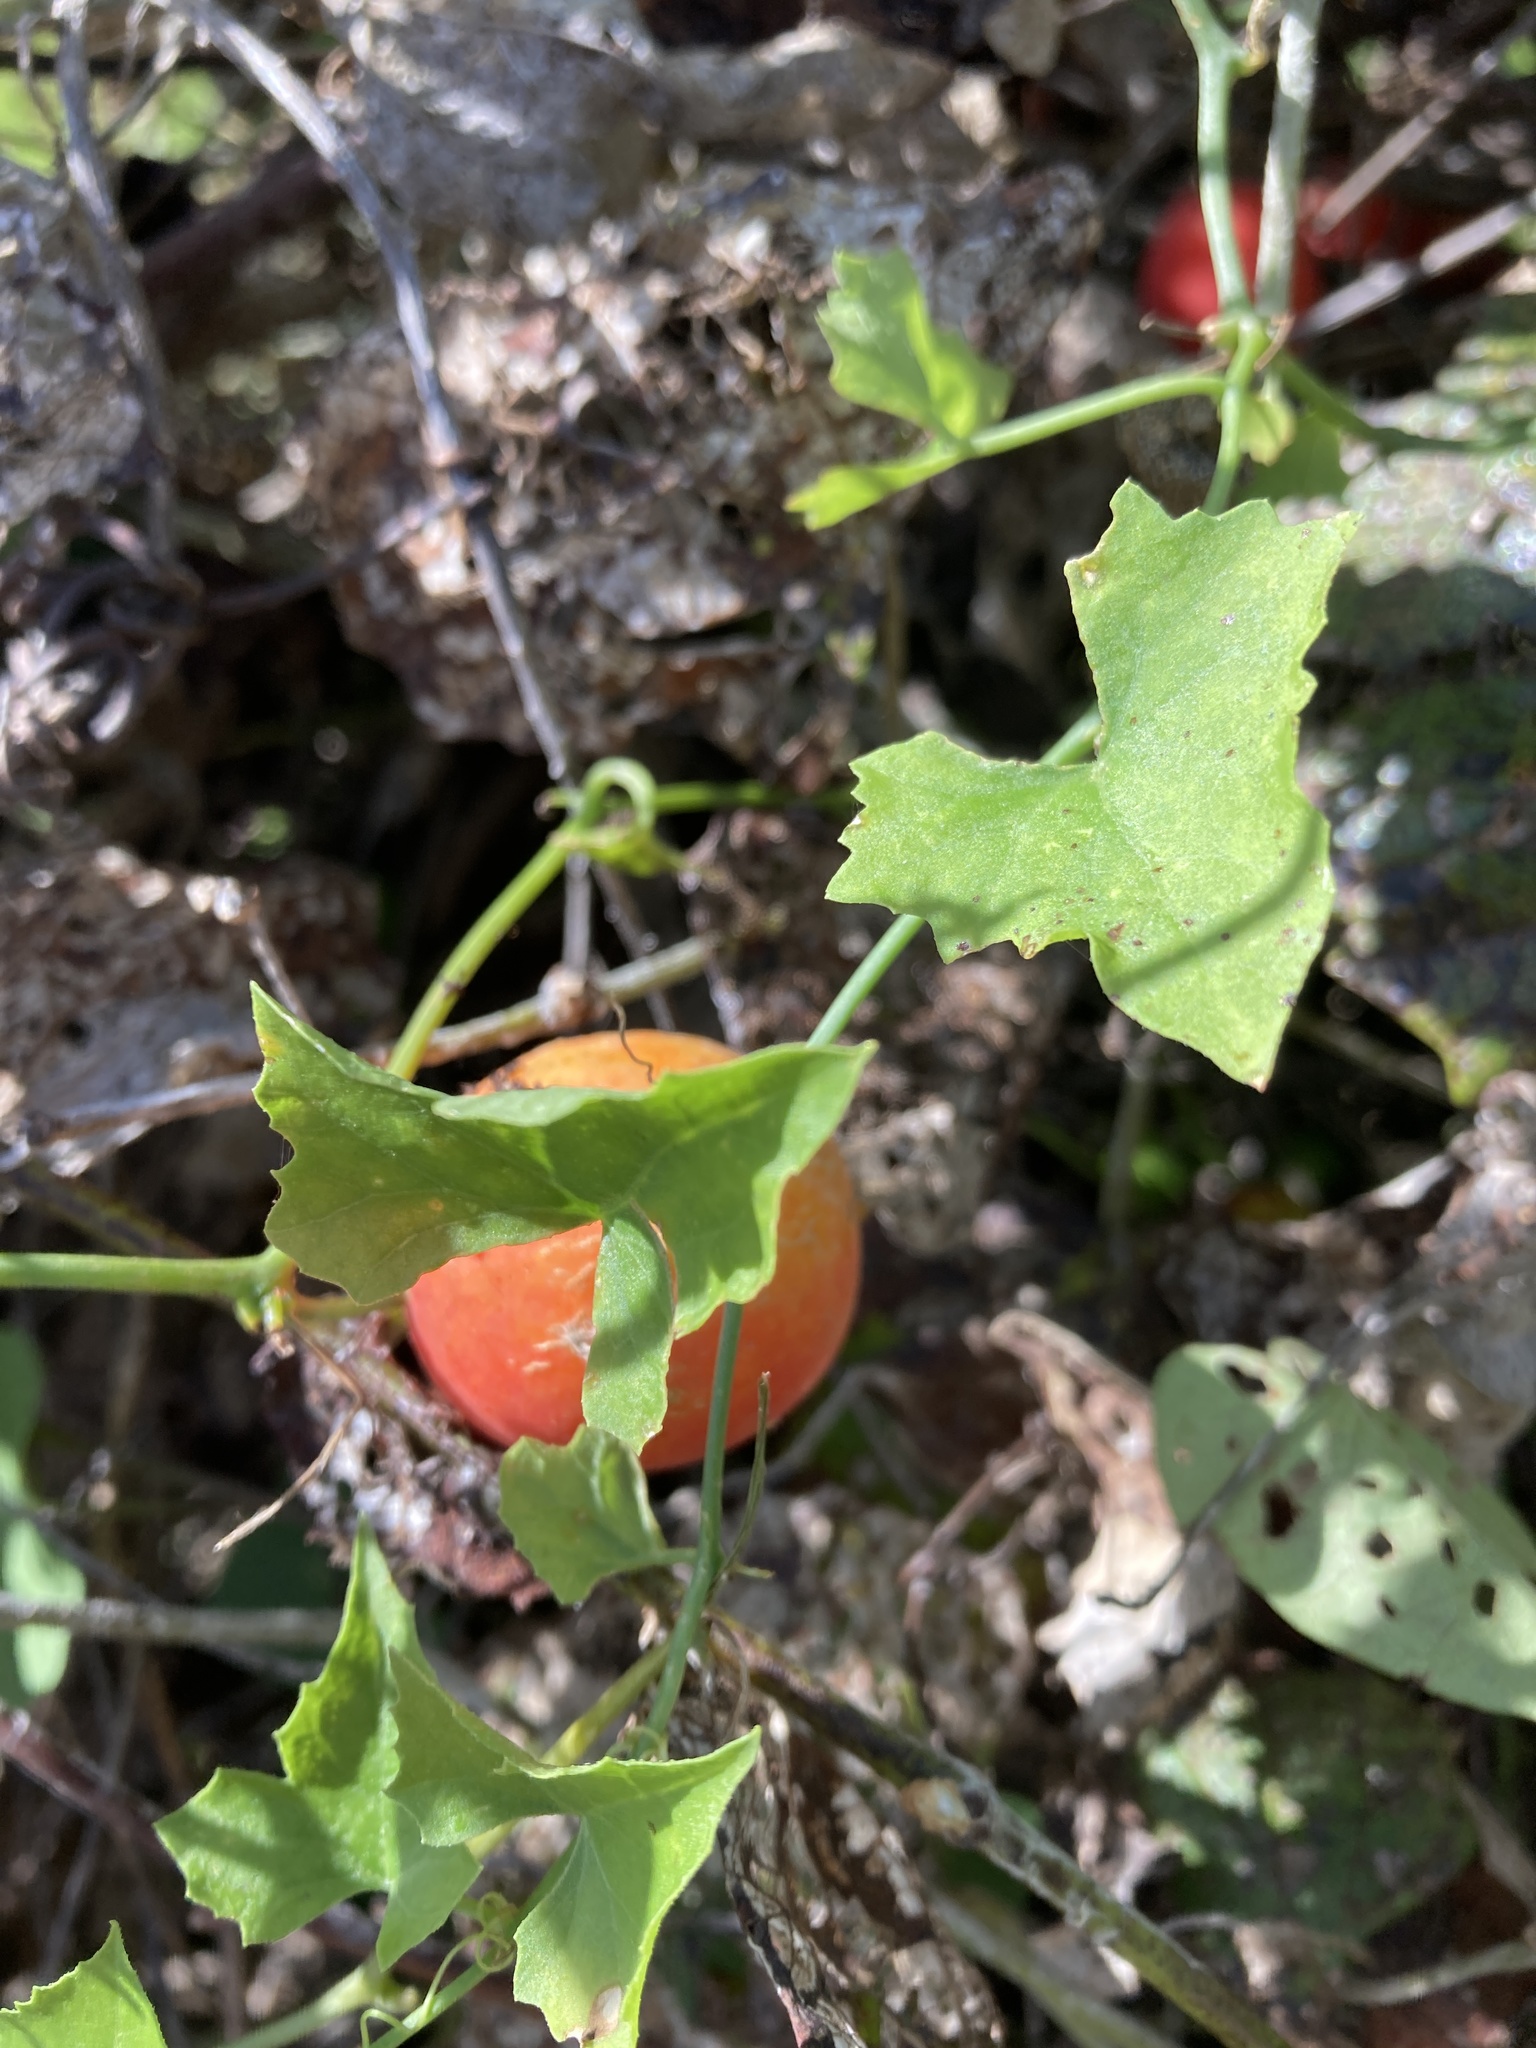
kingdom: Plantae
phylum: Tracheophyta
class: Magnoliopsida
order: Cucurbitales
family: Cucurbitaceae
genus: Ibervillea
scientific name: Ibervillea lindheimeri
